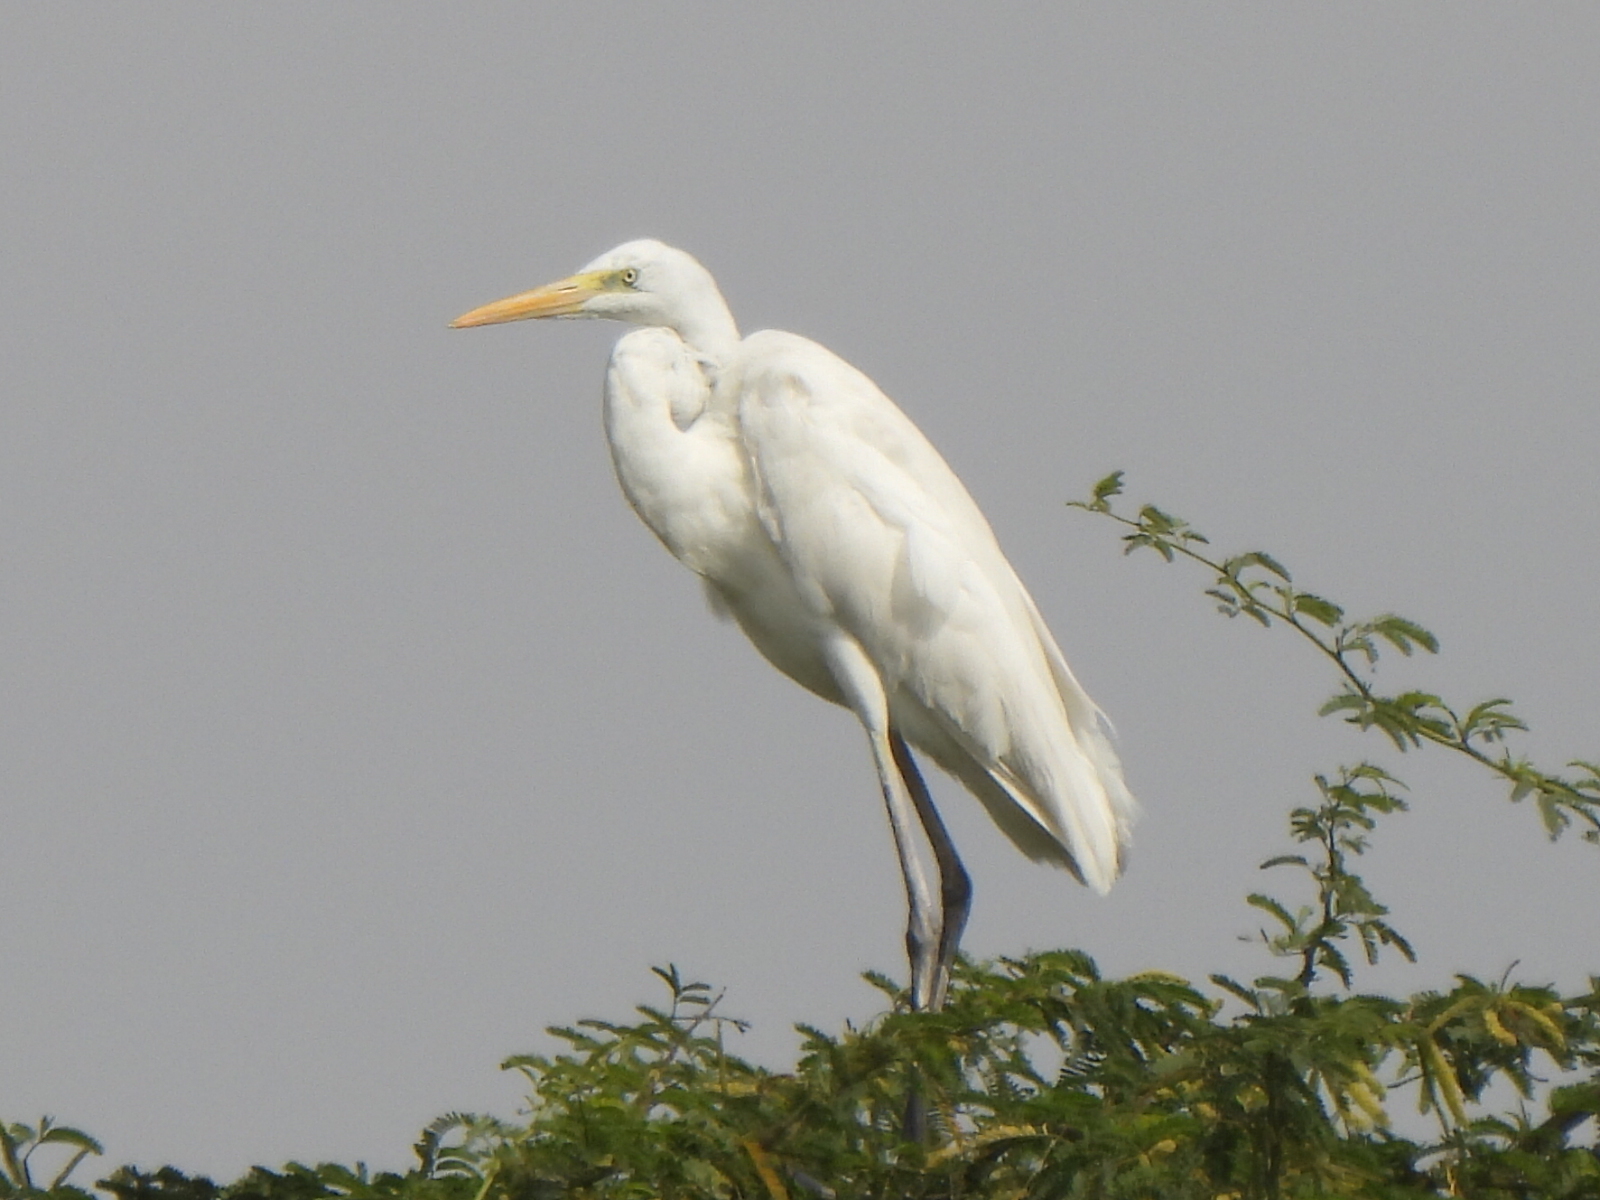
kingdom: Animalia
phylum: Chordata
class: Aves
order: Pelecaniformes
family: Ardeidae
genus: Ardea
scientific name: Ardea alba
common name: Great egret
